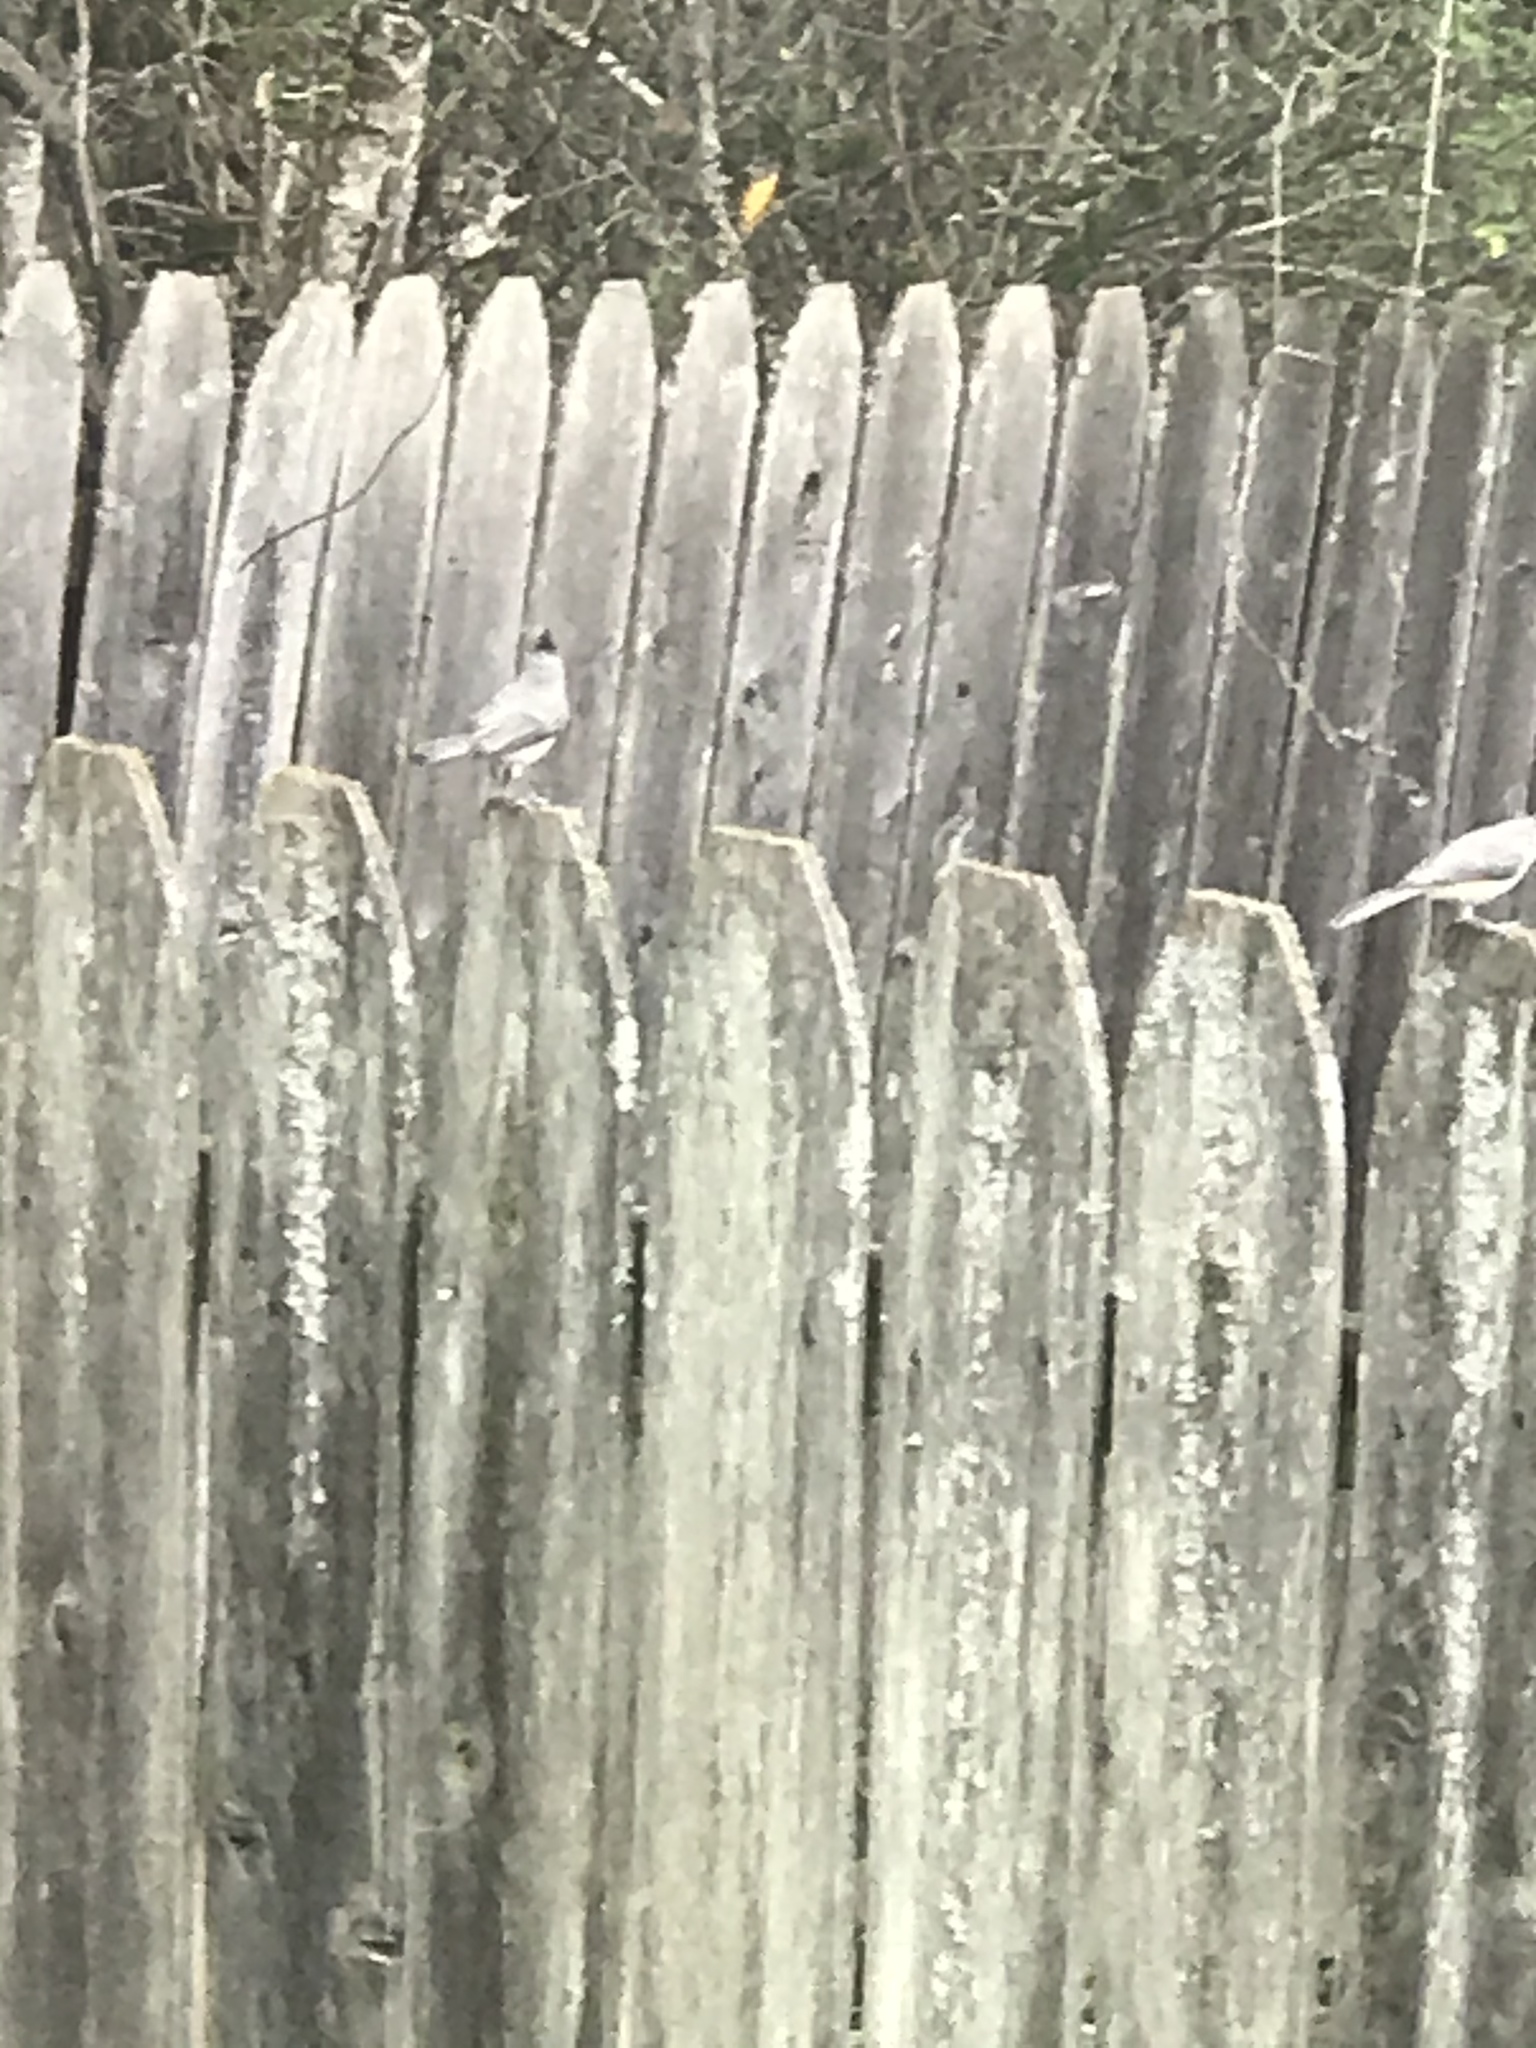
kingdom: Animalia
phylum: Chordata
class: Aves
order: Passeriformes
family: Paridae
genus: Baeolophus
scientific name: Baeolophus bicolor
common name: Tufted titmouse
